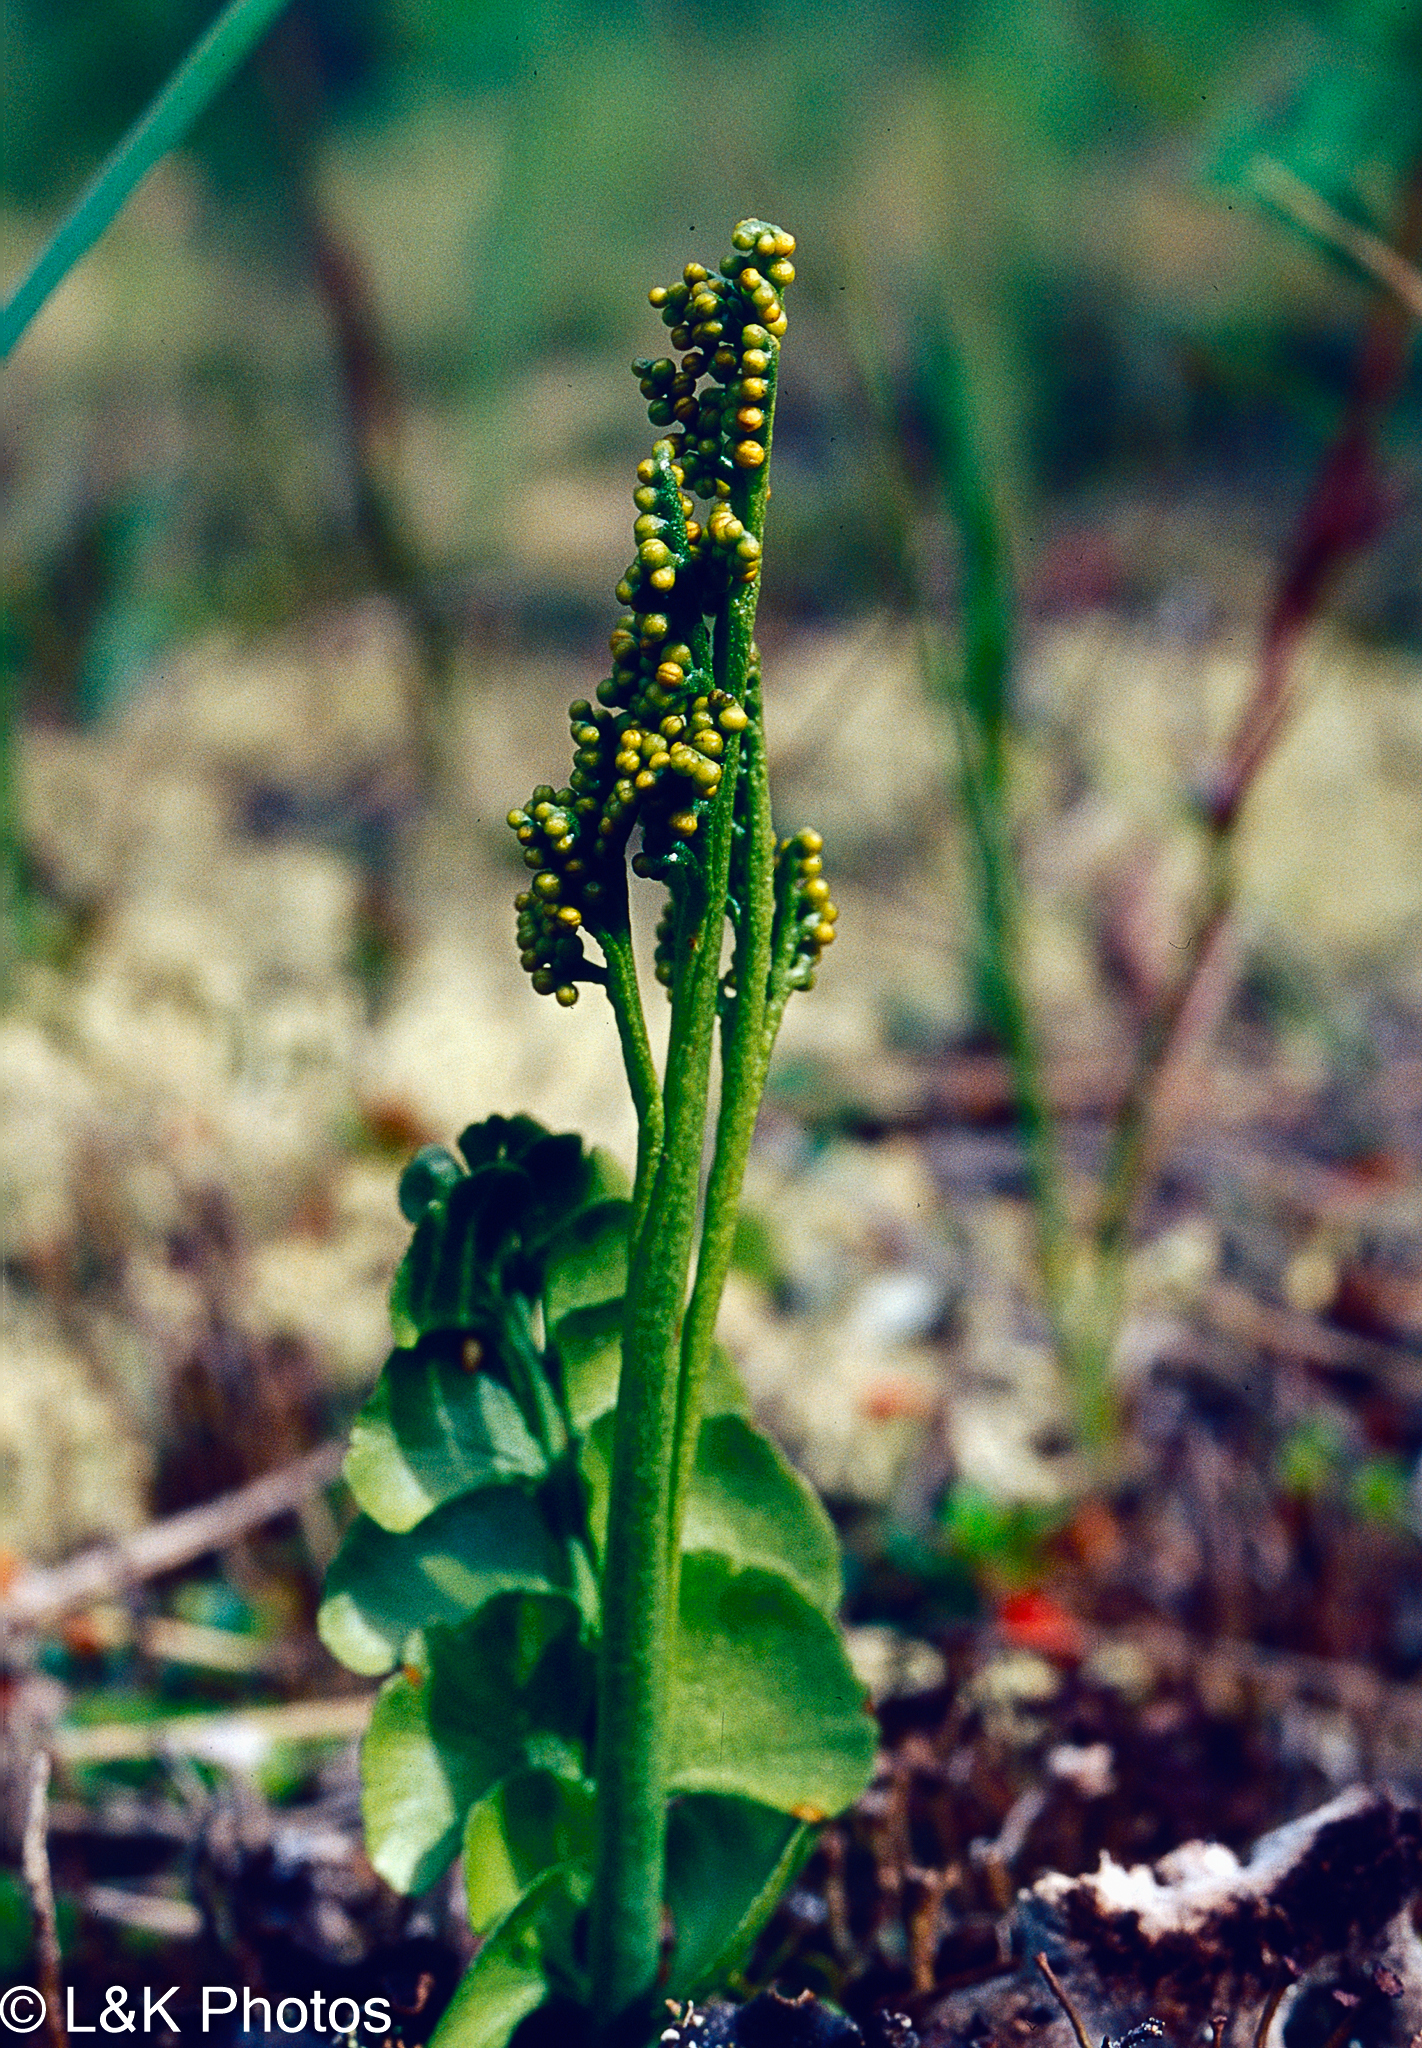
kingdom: Plantae
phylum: Tracheophyta
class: Polypodiopsida
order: Ophioglossales
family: Ophioglossaceae
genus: Botrychium
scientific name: Botrychium neolunaria
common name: New world moonwort
